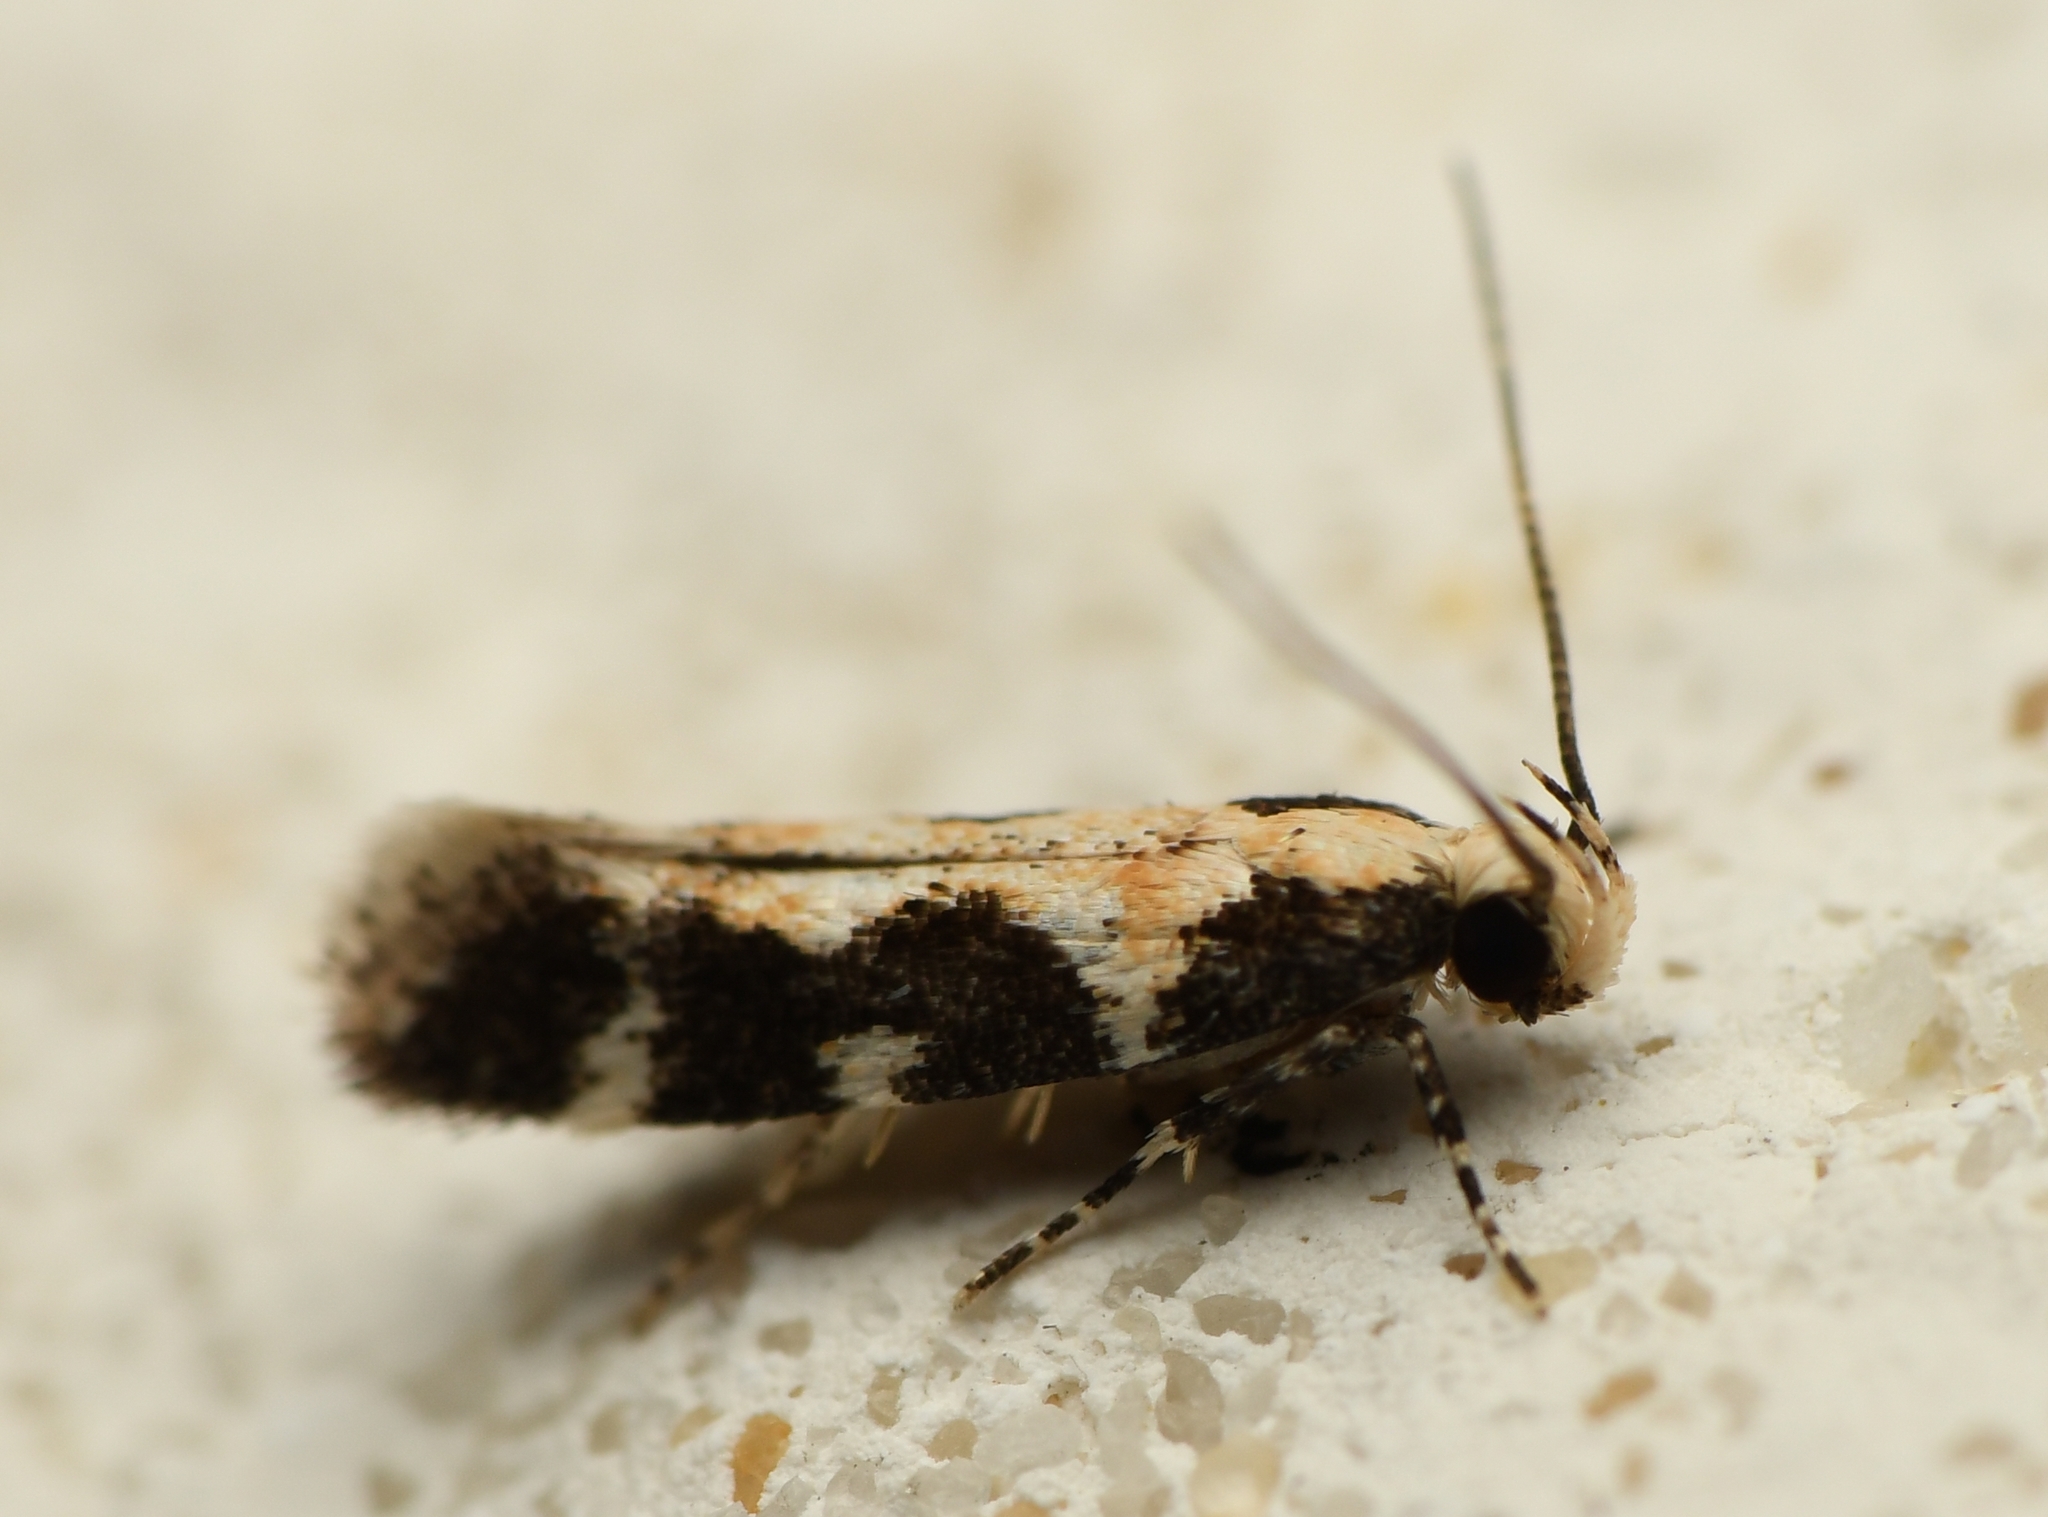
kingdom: Animalia
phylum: Arthropoda
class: Insecta
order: Lepidoptera
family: Gelechiidae
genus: Stegasta
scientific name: Stegasta capitella
